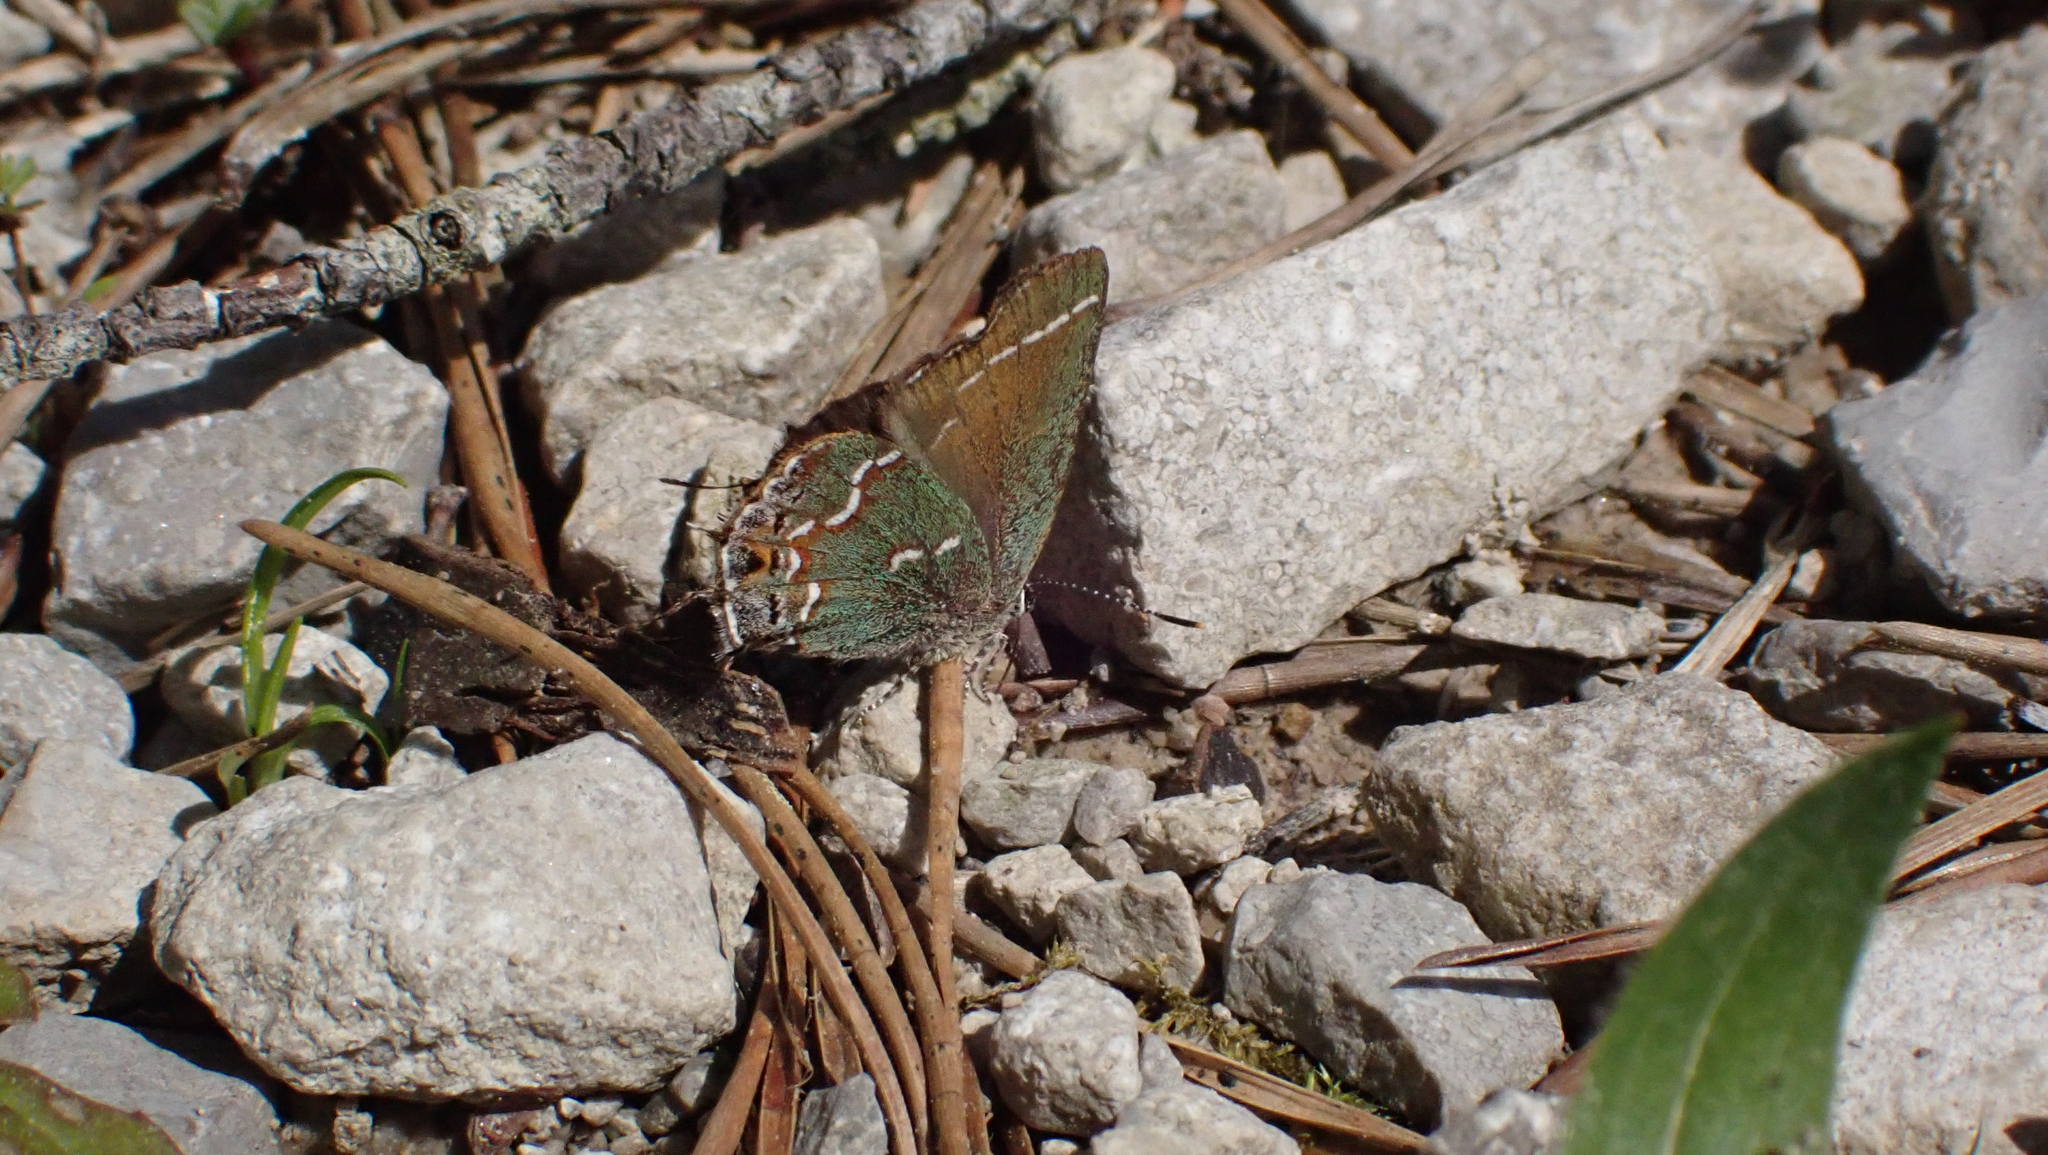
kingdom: Animalia
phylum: Arthropoda
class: Insecta
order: Lepidoptera
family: Lycaenidae
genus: Mitoura
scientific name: Mitoura gryneus
